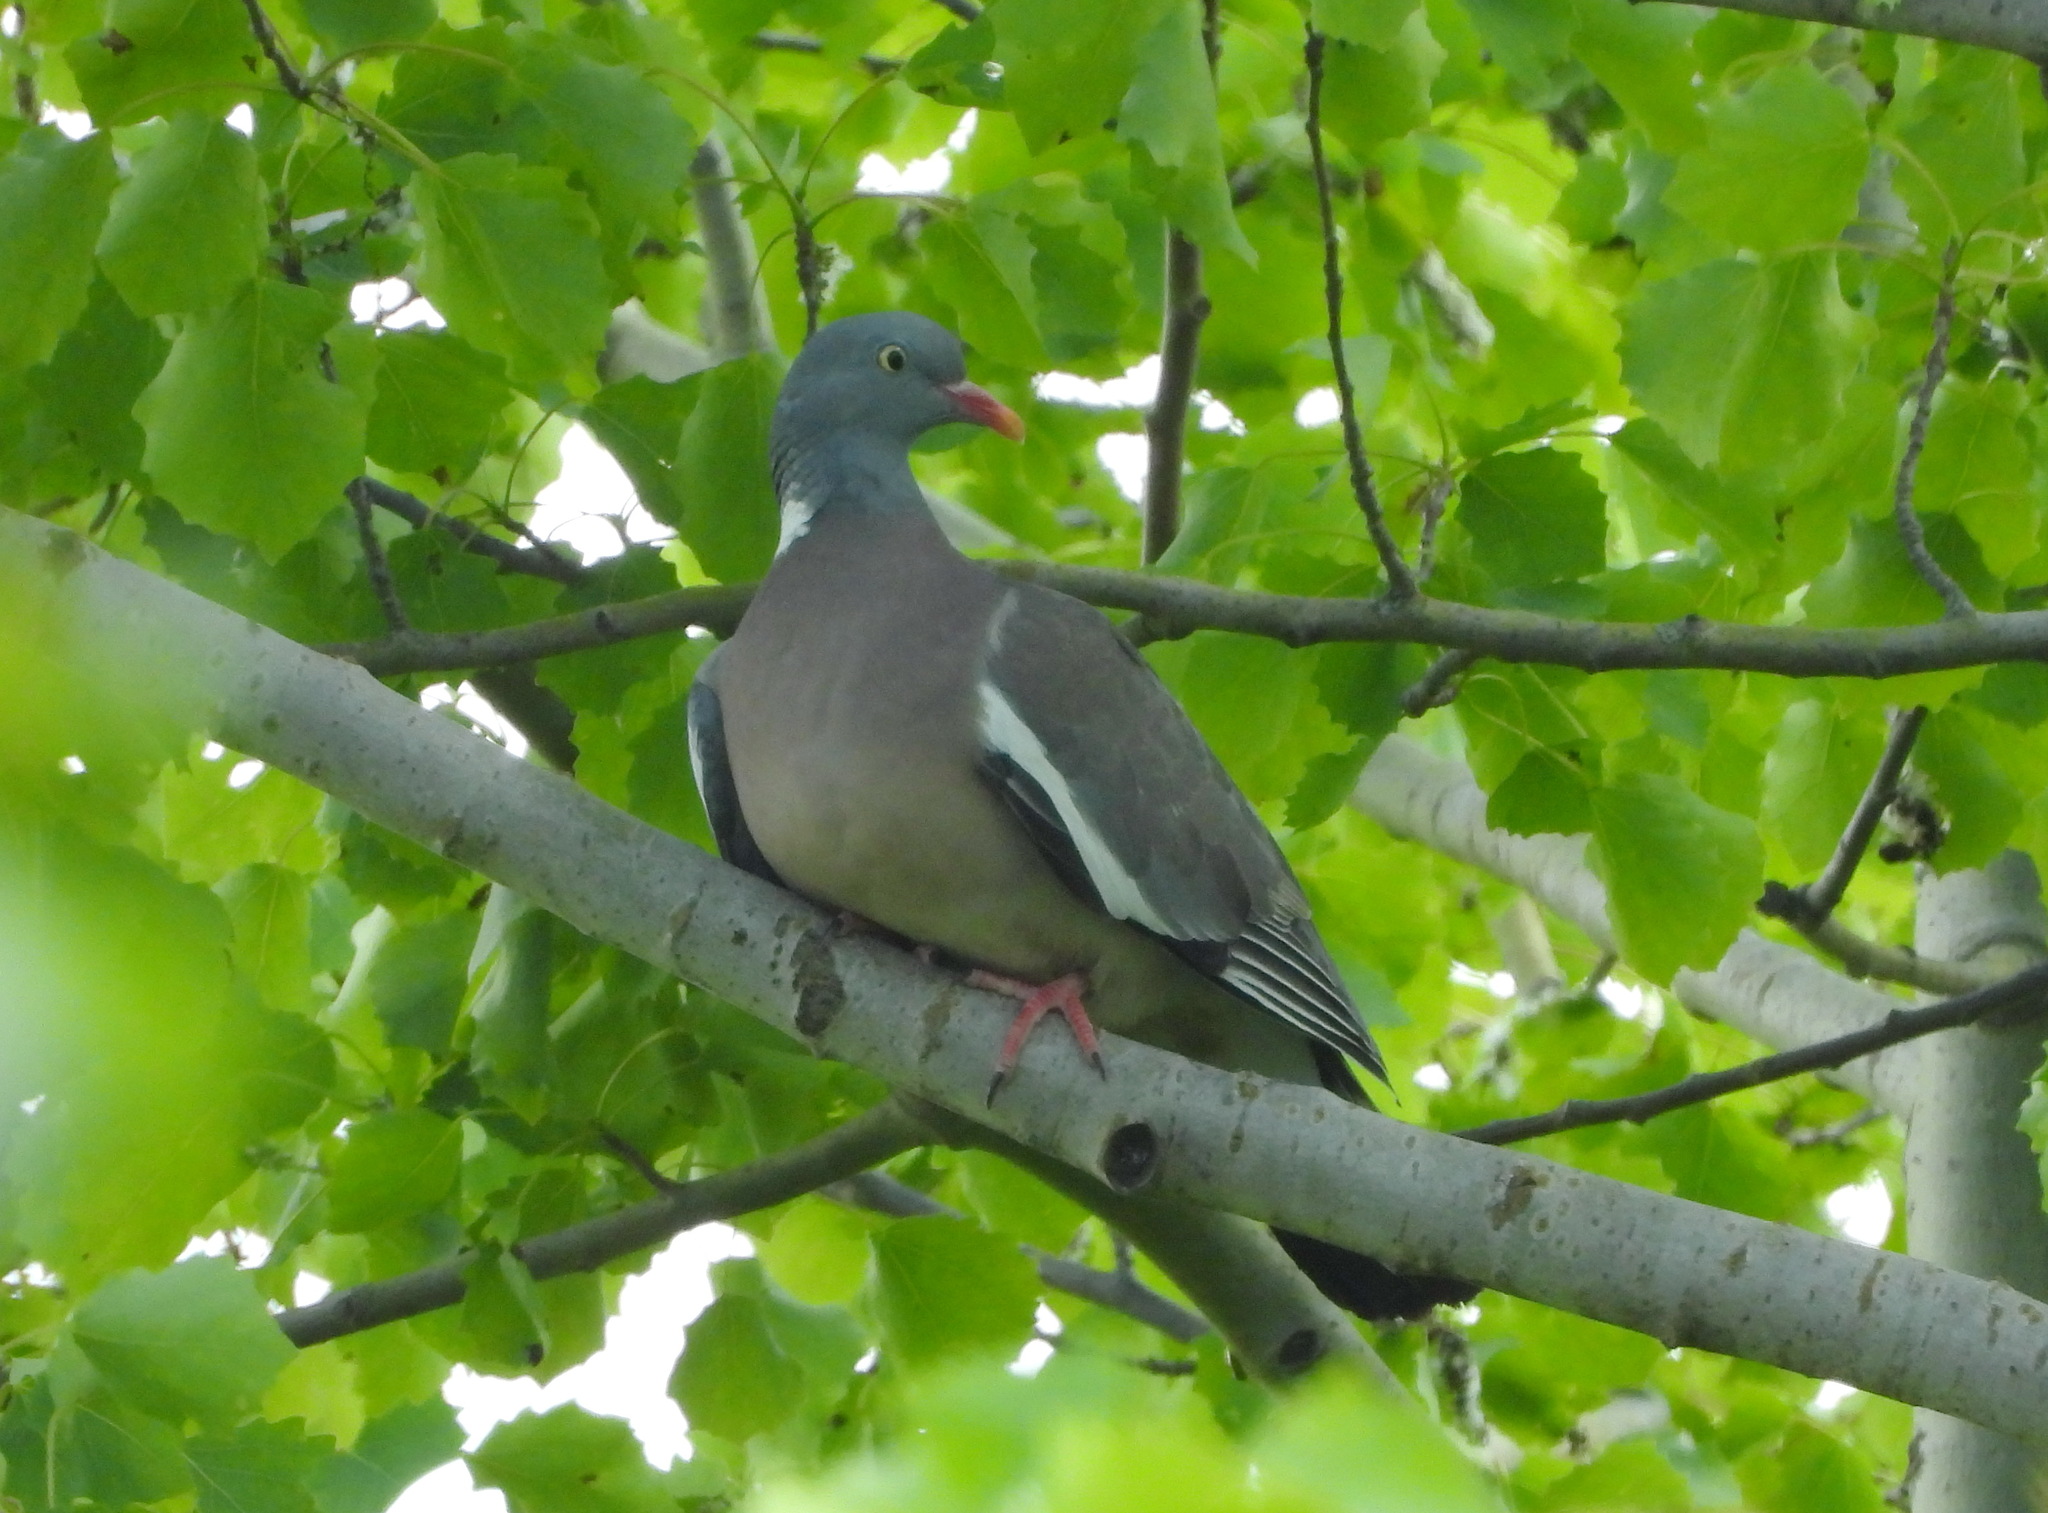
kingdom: Animalia
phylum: Chordata
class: Aves
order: Columbiformes
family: Columbidae
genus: Columba
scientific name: Columba palumbus
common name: Common wood pigeon
